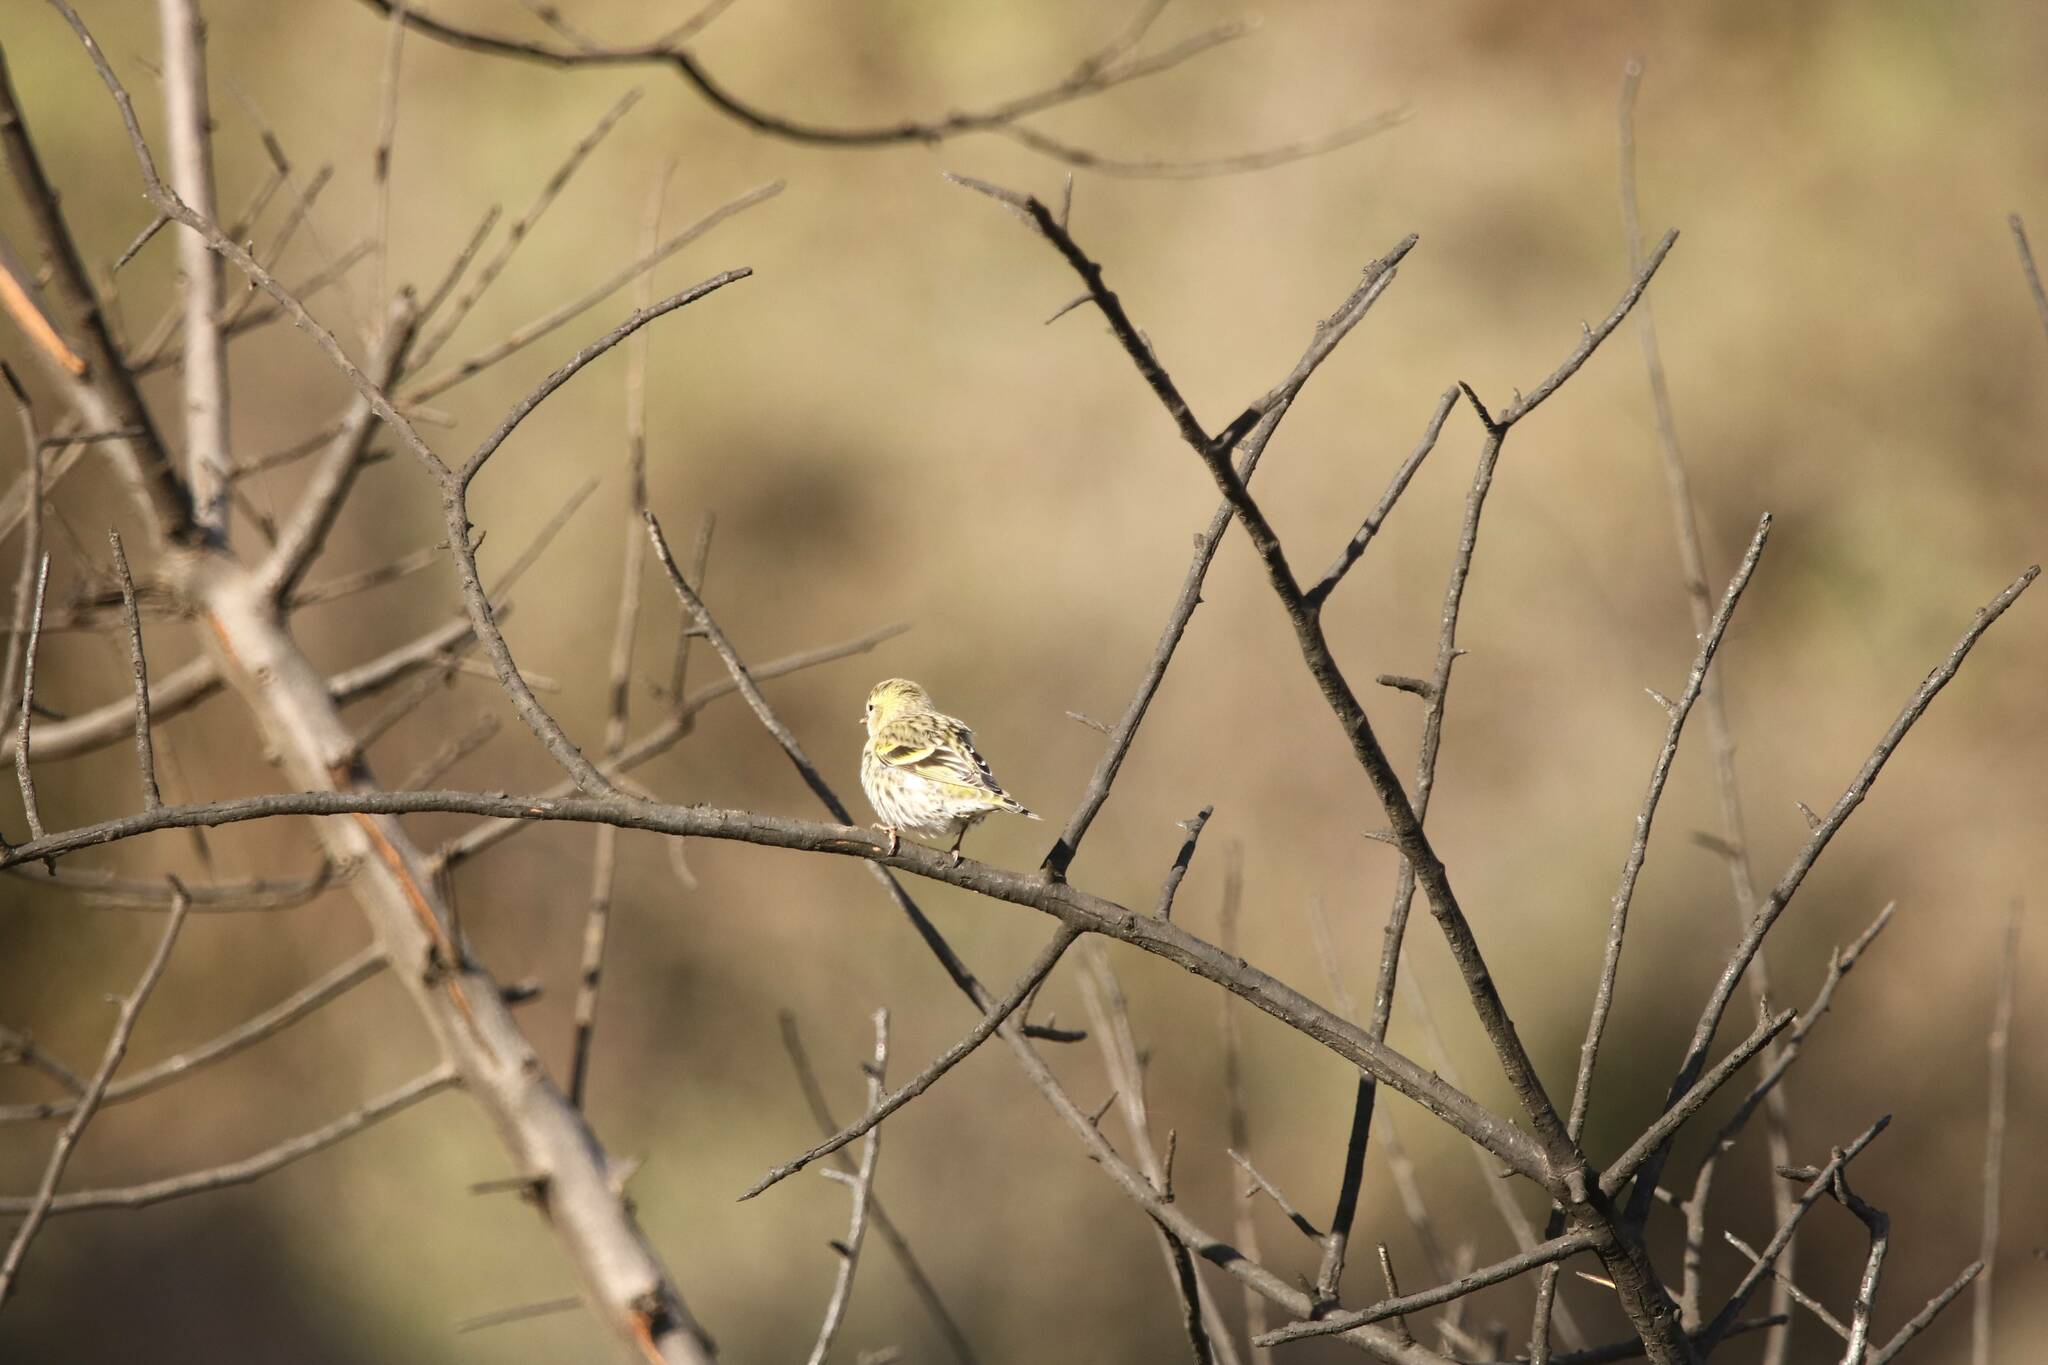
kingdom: Animalia
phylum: Chordata
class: Aves
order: Passeriformes
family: Fringillidae
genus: Spinus
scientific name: Spinus spinus
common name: Eurasian siskin
